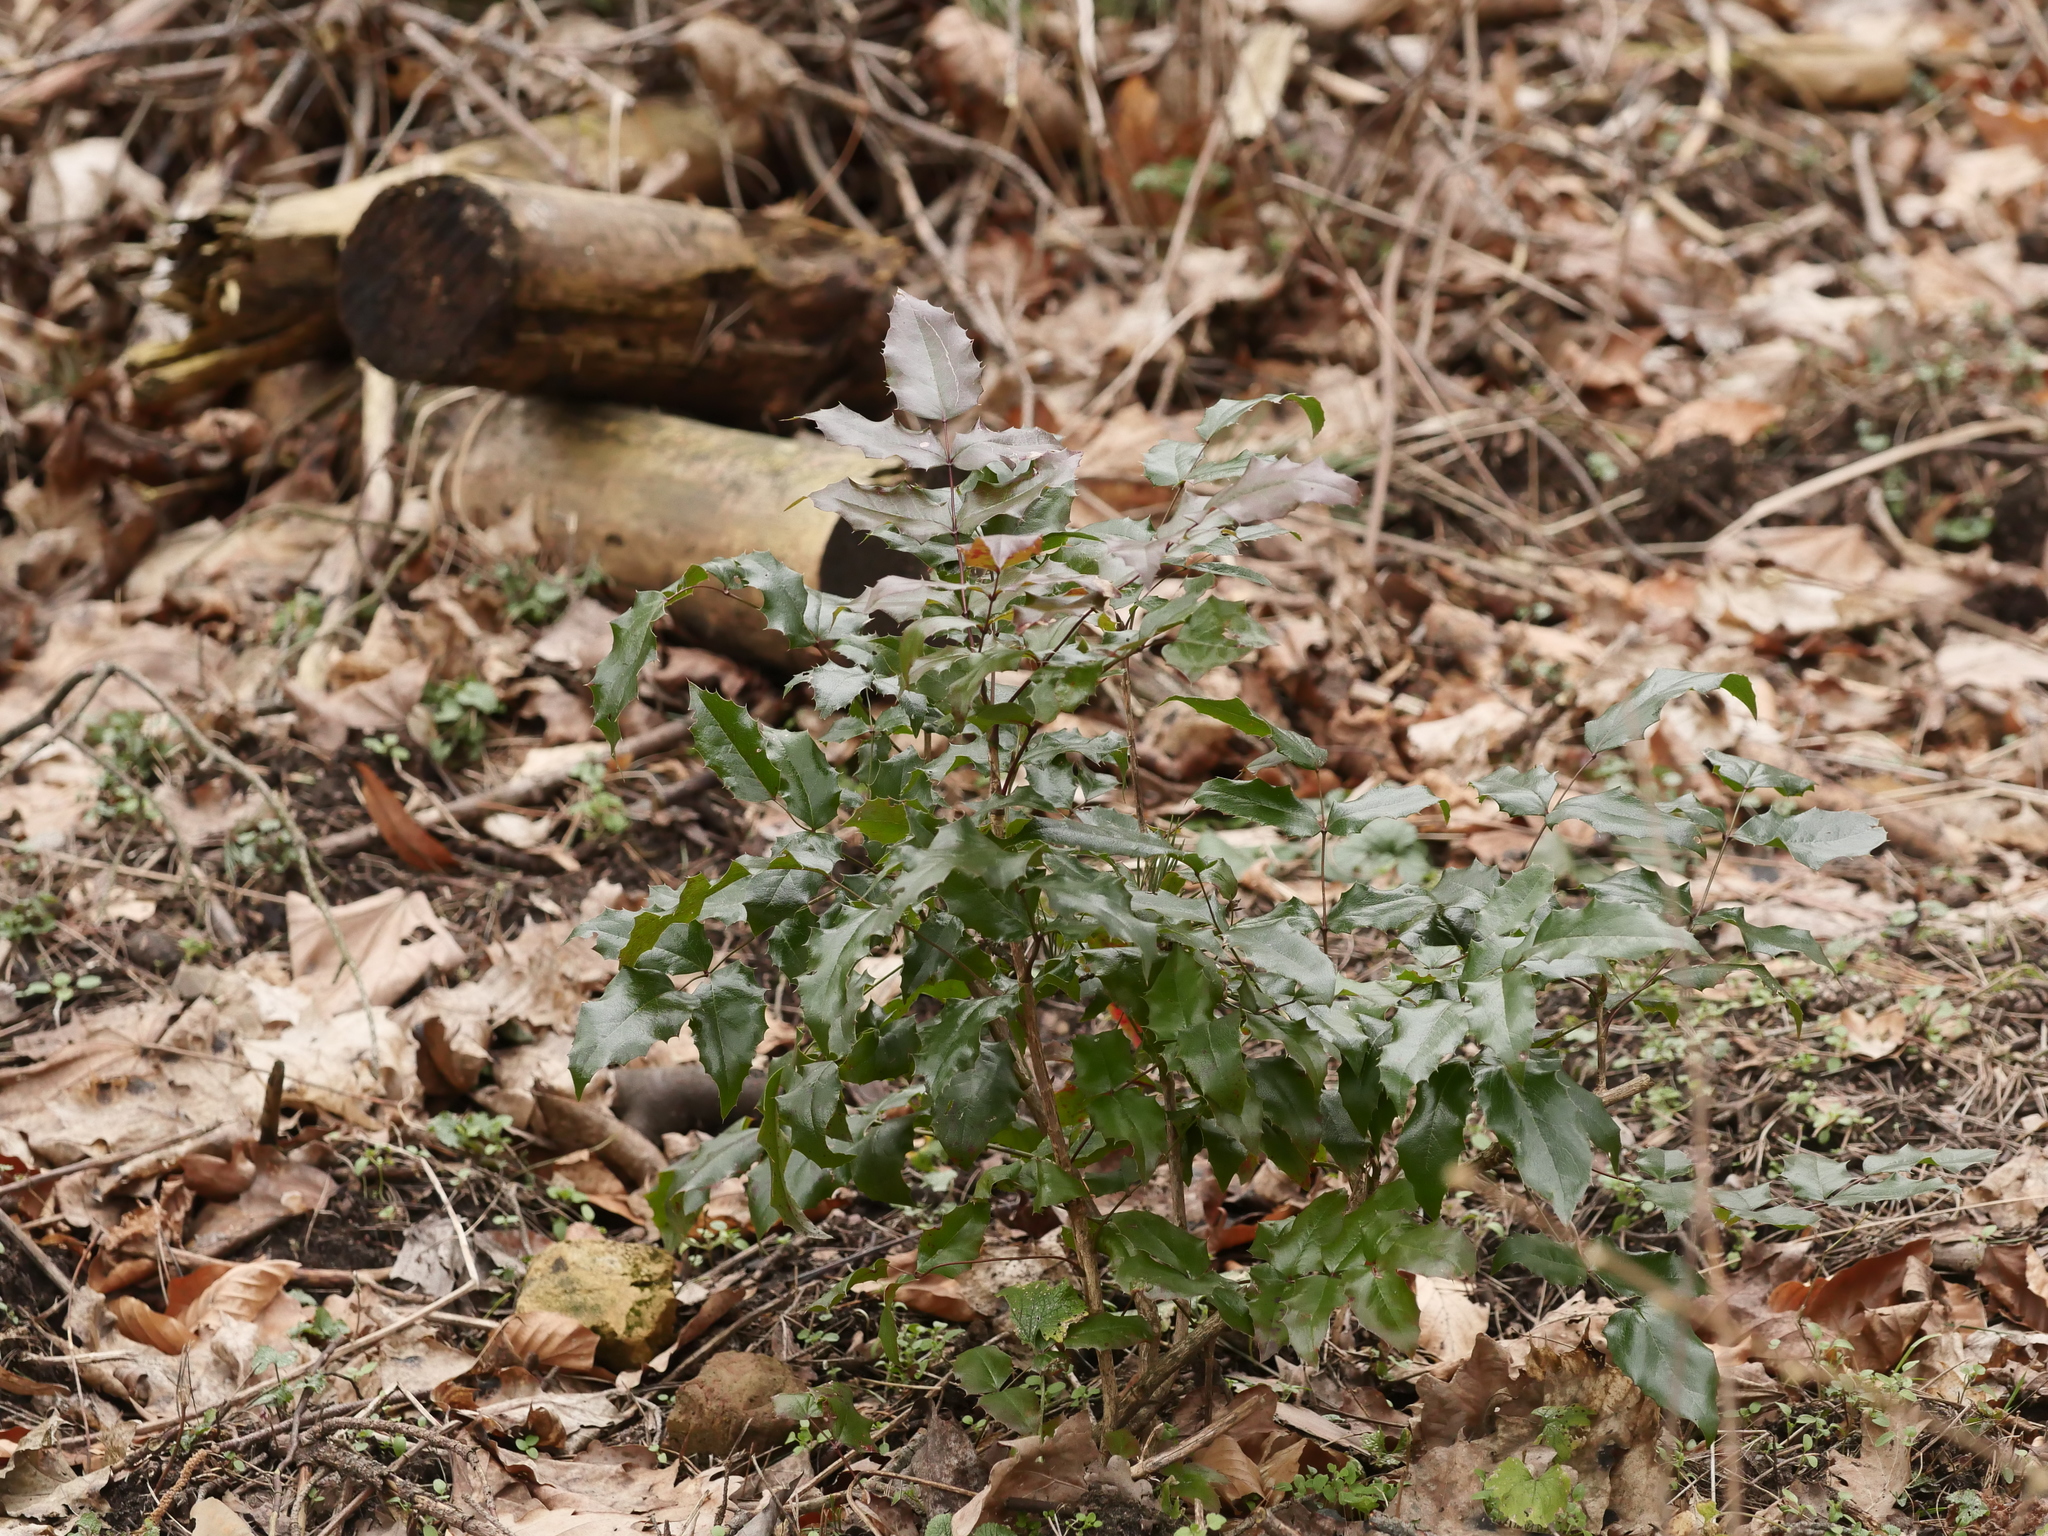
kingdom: Plantae
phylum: Tracheophyta
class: Magnoliopsida
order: Ranunculales
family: Berberidaceae
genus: Mahonia
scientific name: Mahonia aquifolium
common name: Oregon-grape
